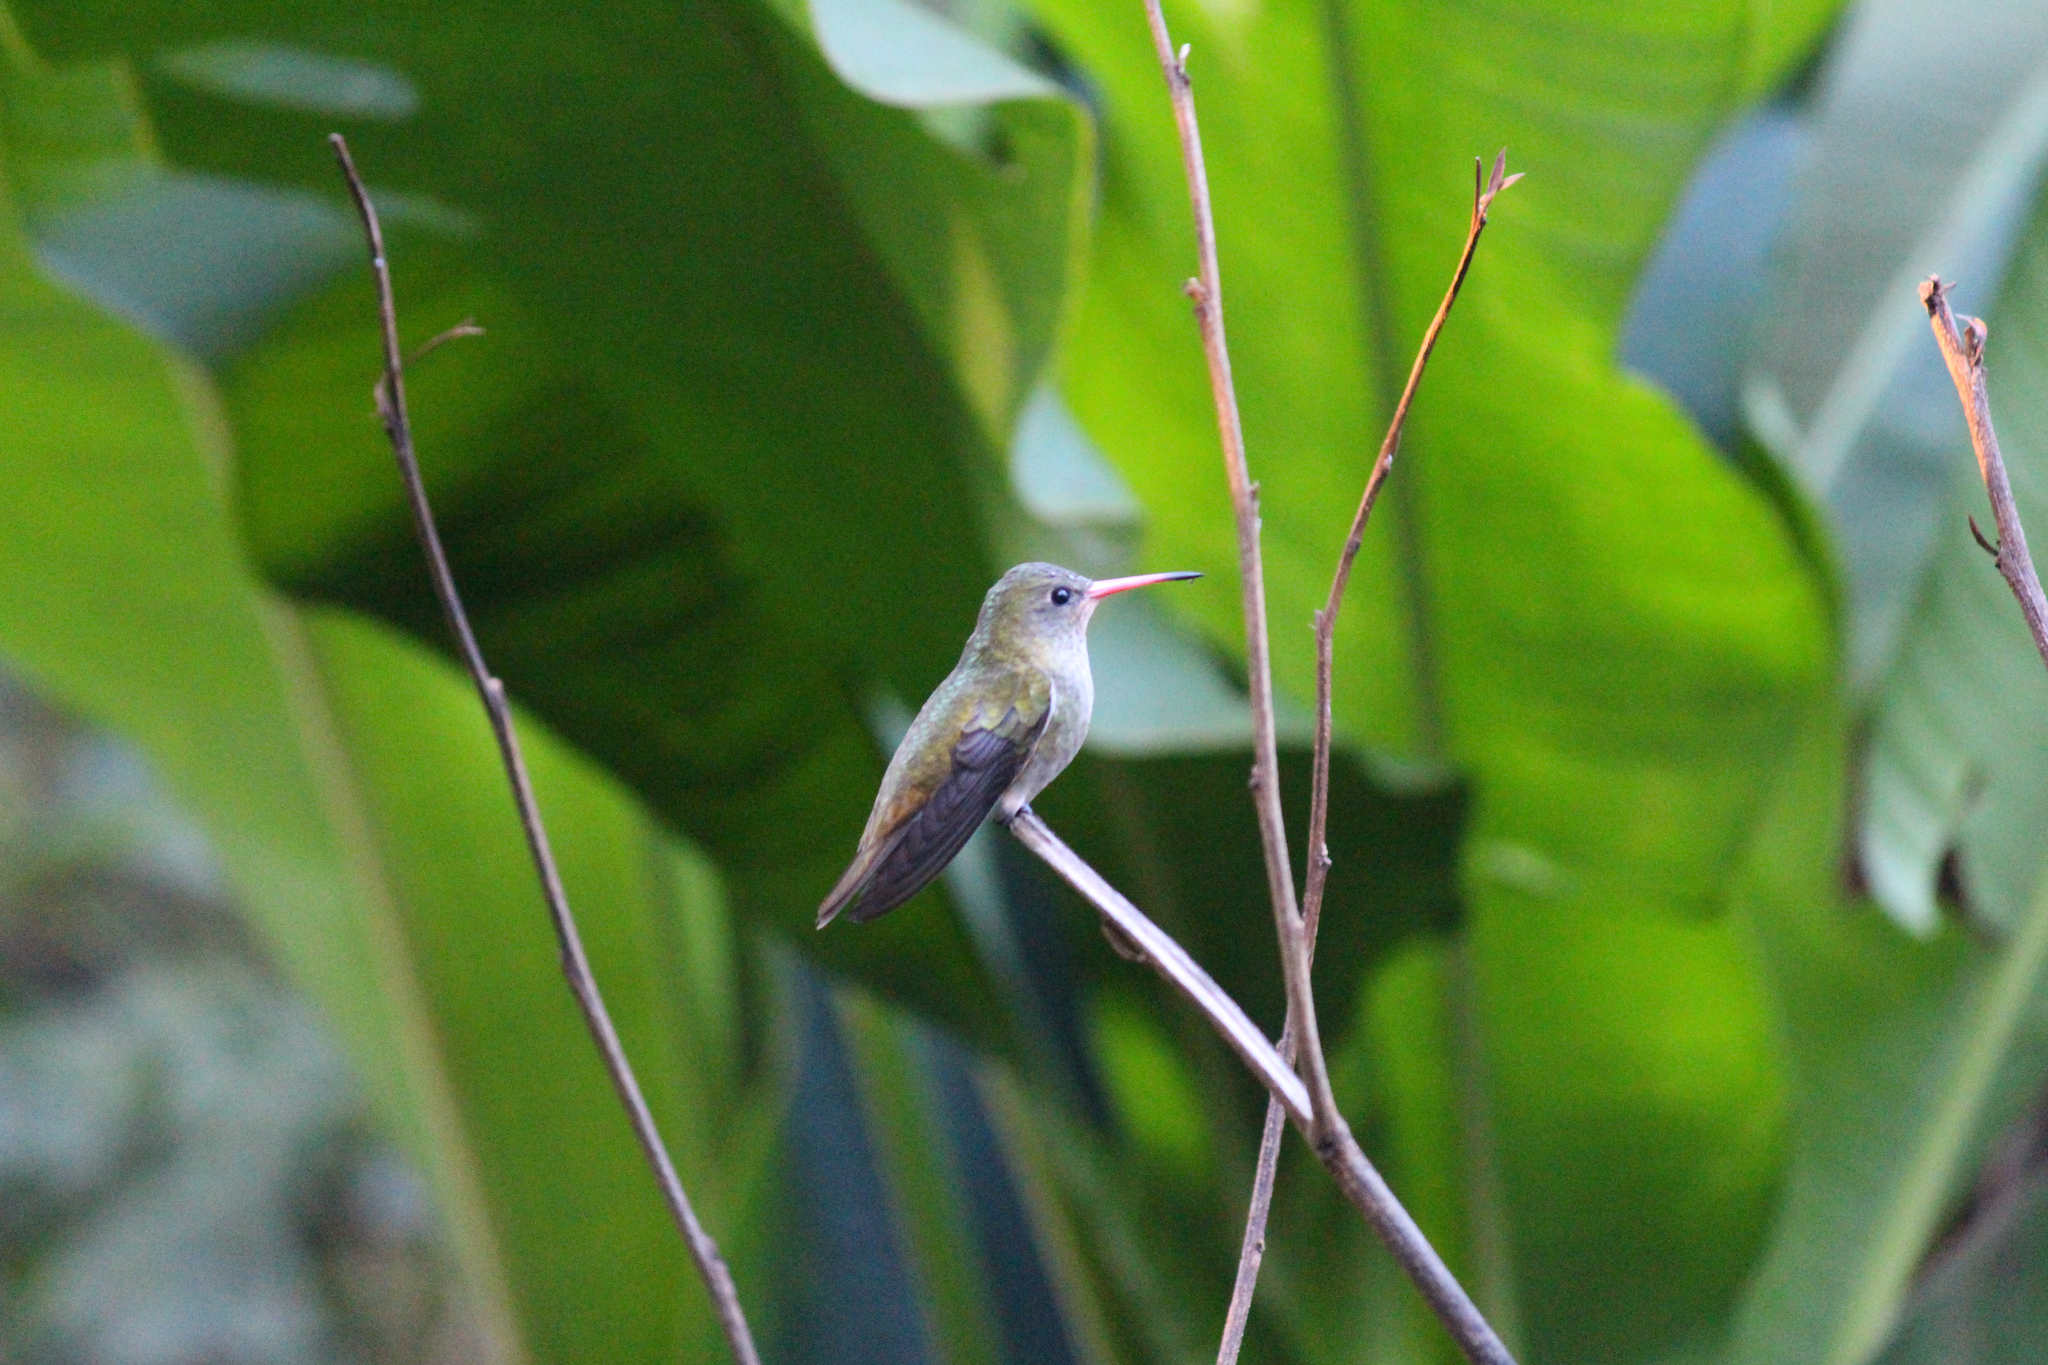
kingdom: Animalia
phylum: Chordata
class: Aves
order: Apodiformes
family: Trochilidae
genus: Hylocharis
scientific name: Hylocharis chrysura
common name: Gilded sapphire
